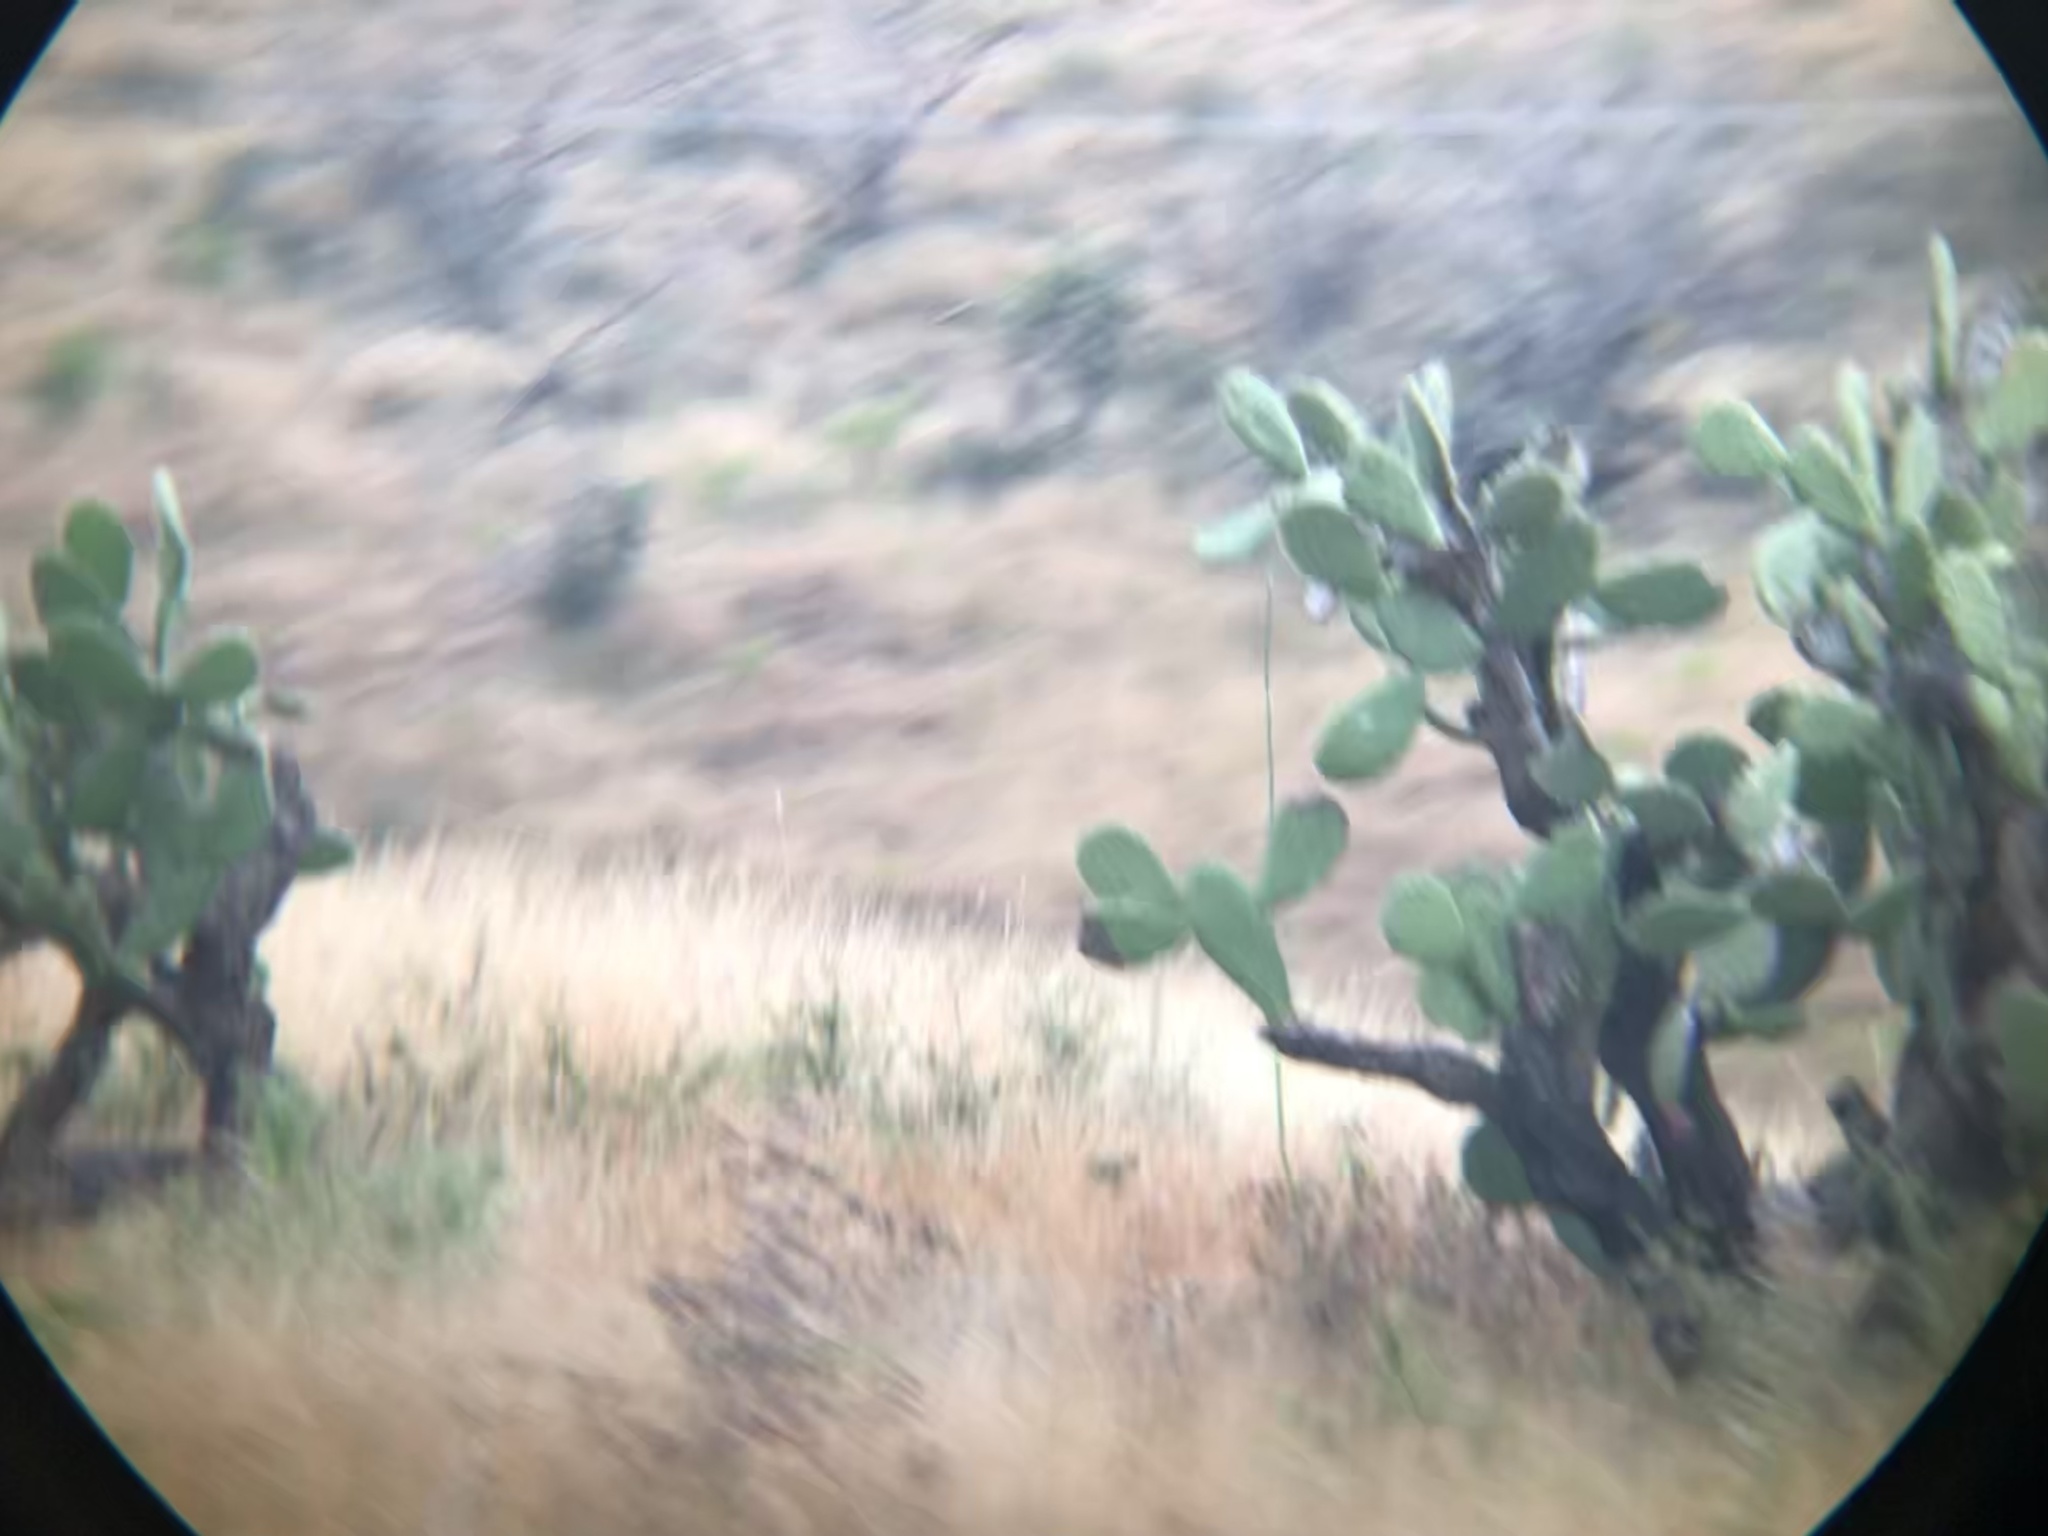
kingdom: Plantae
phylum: Tracheophyta
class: Magnoliopsida
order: Caryophyllales
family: Cactaceae
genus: Opuntia
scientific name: Opuntia
